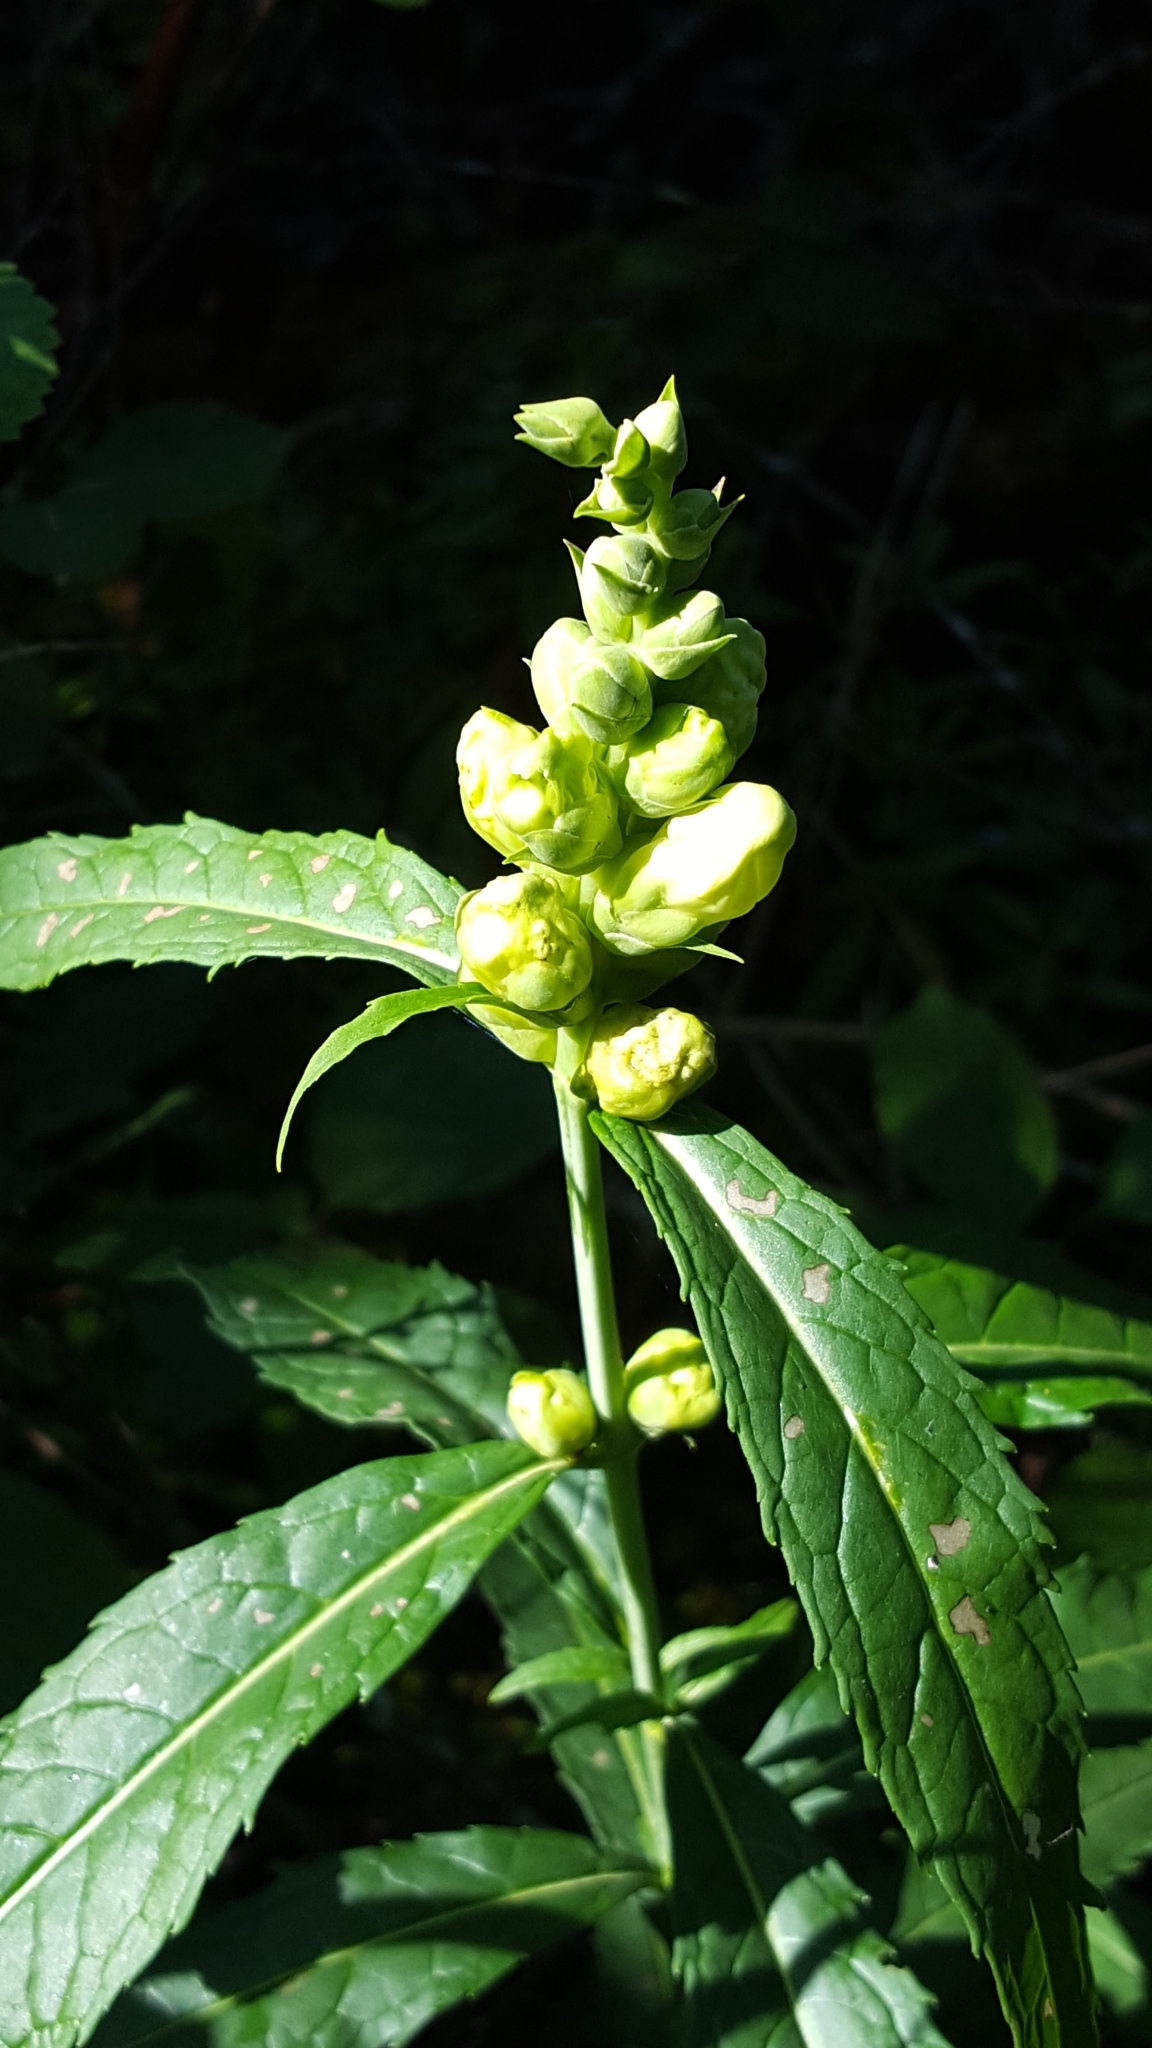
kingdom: Plantae
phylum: Tracheophyta
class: Magnoliopsida
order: Lamiales
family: Plantaginaceae
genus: Chelone
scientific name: Chelone glabra
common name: Snakehead
